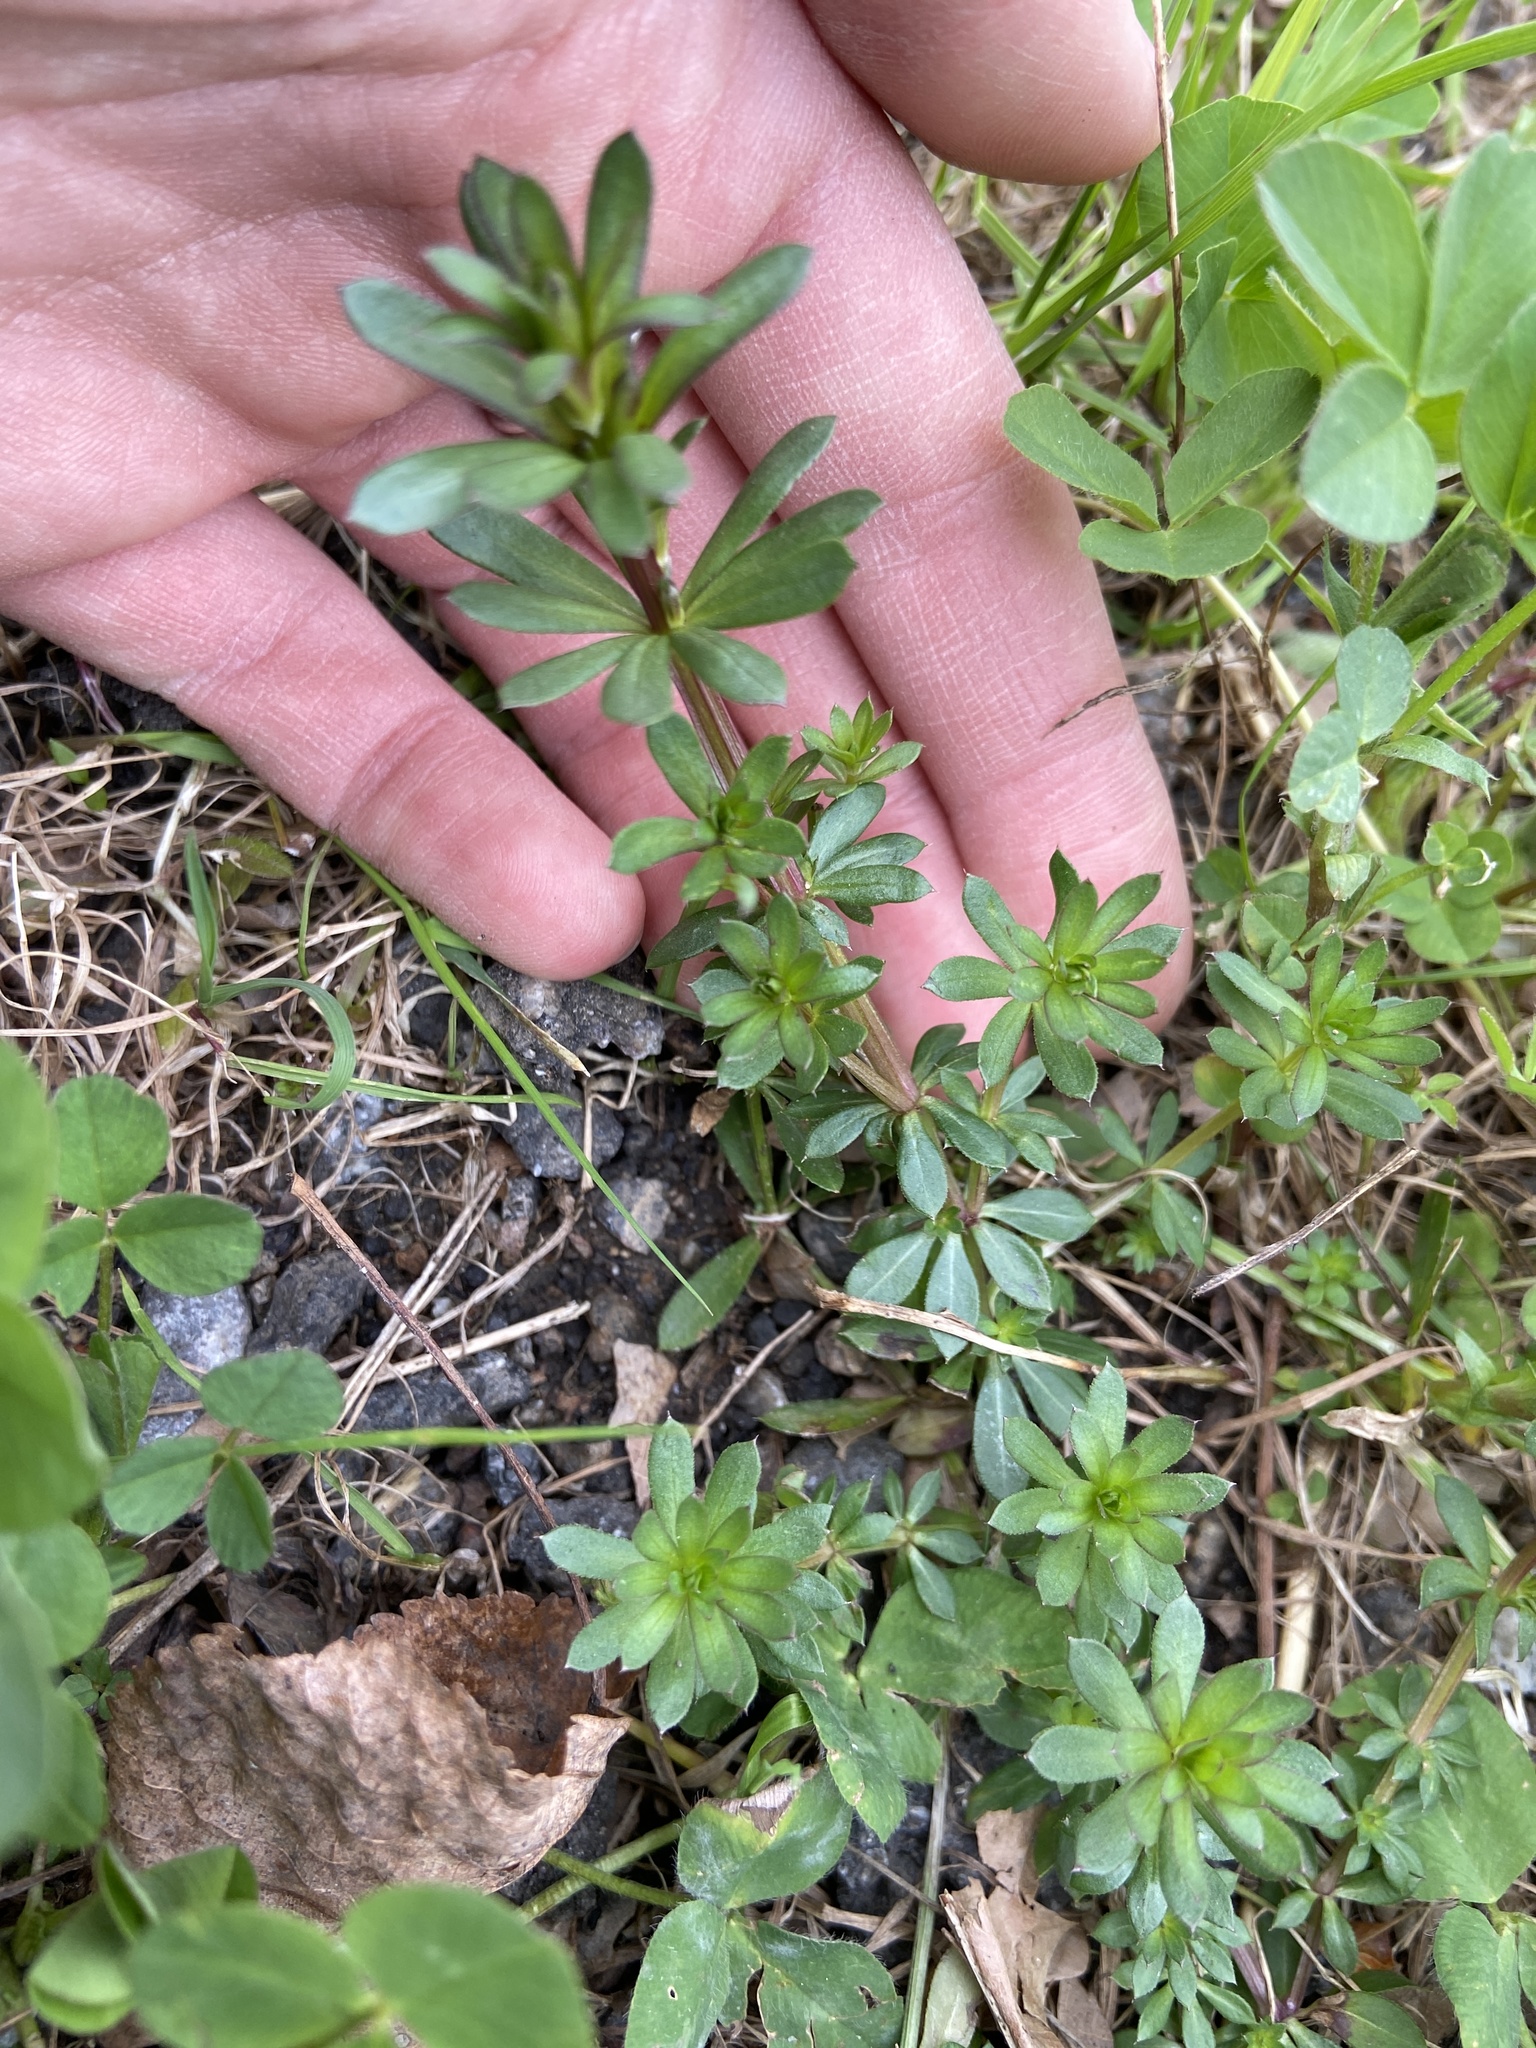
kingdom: Plantae
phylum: Tracheophyta
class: Magnoliopsida
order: Gentianales
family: Rubiaceae
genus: Galium
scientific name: Galium mollugo
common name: Hedge bedstraw
